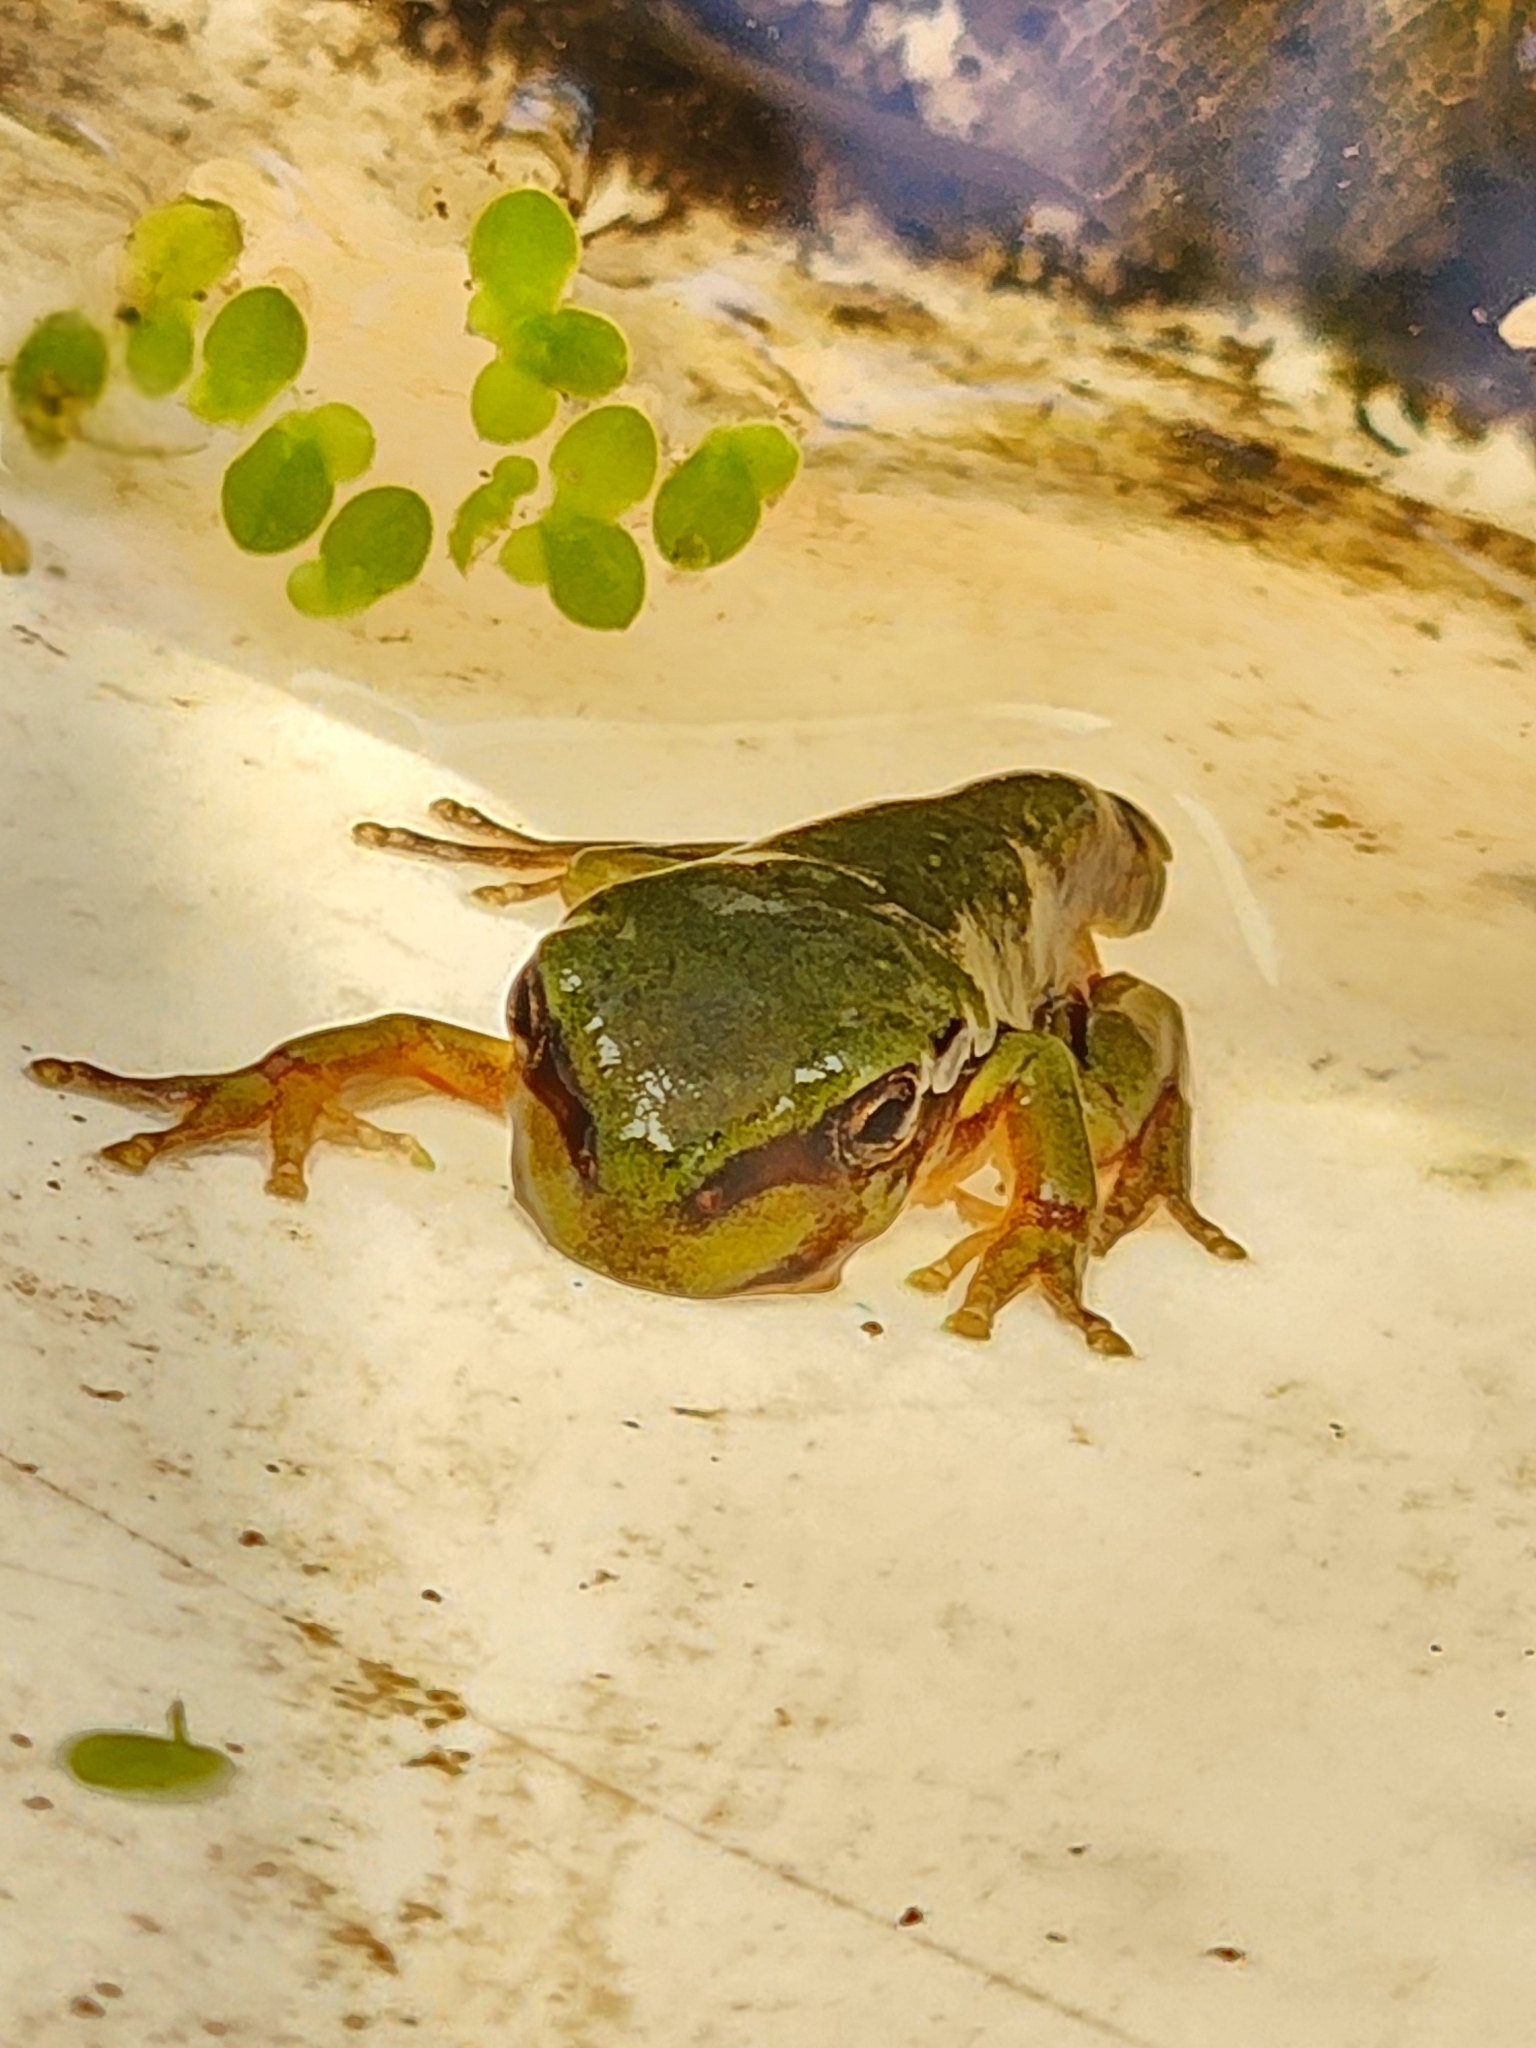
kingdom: Animalia
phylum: Chordata
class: Amphibia
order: Anura
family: Pelodryadidae
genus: Ranoidea
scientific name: Ranoidea caerulea
